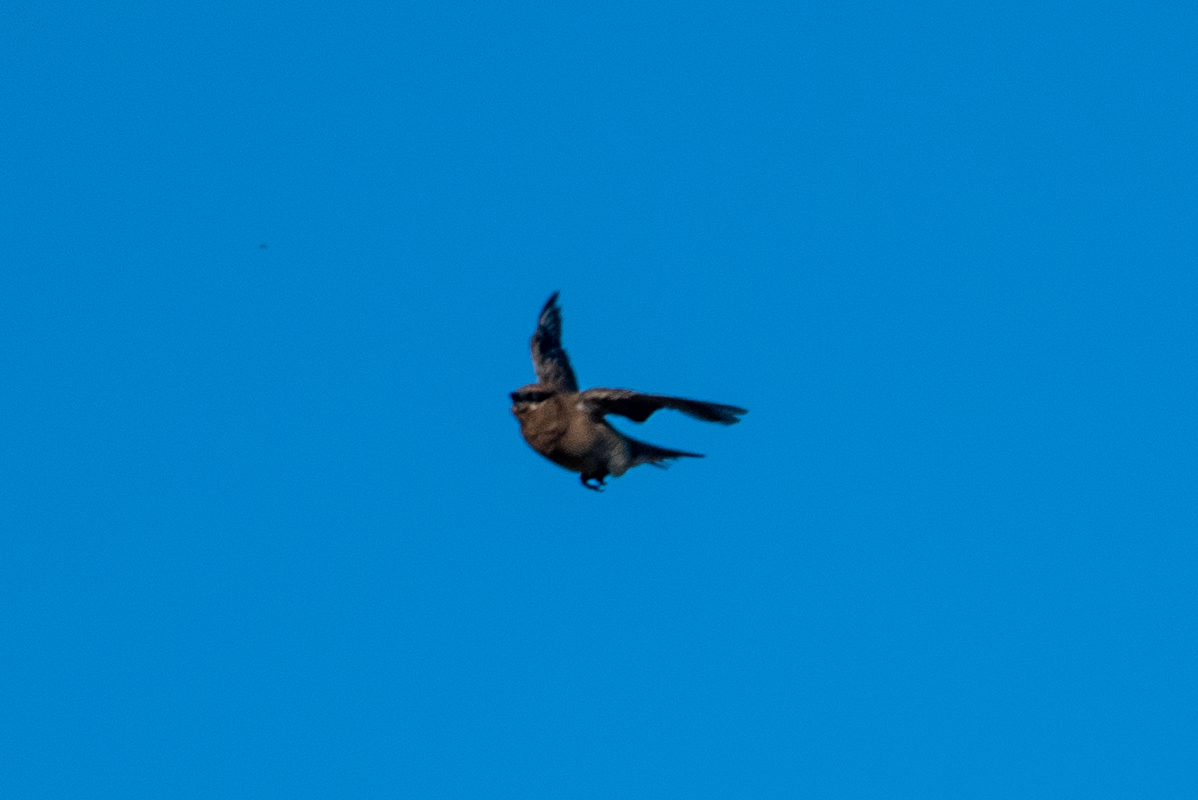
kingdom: Animalia
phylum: Chordata
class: Aves
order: Passeriformes
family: Bombycillidae
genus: Bombycilla
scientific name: Bombycilla cedrorum
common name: Cedar waxwing
